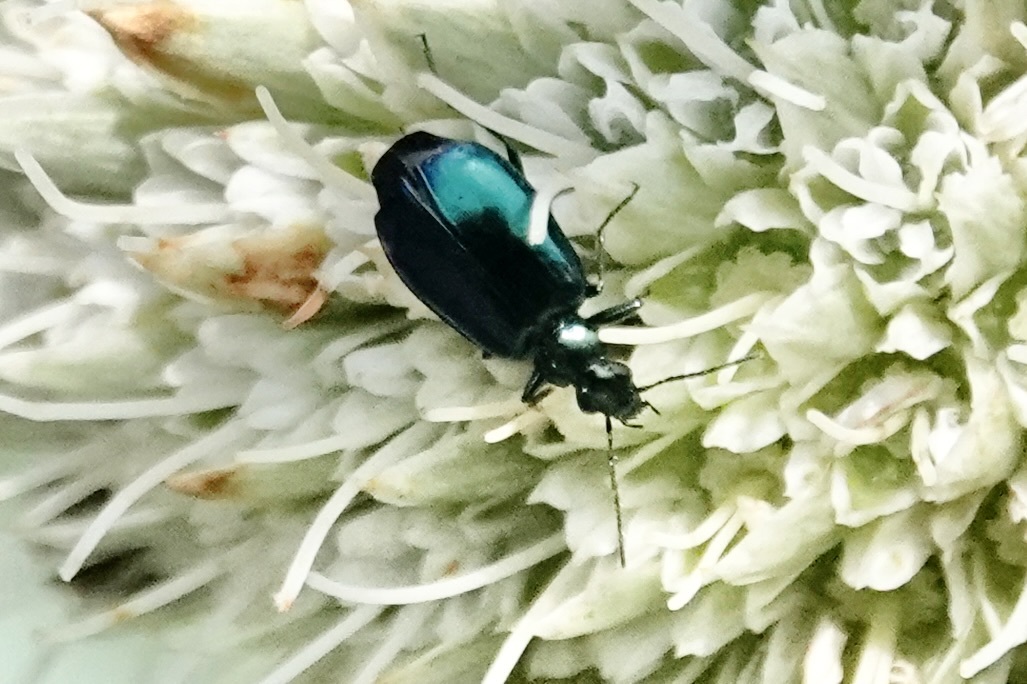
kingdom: Animalia
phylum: Arthropoda
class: Insecta
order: Coleoptera
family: Carabidae
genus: Lebia
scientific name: Lebia viridis
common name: Flower lebia beetle
